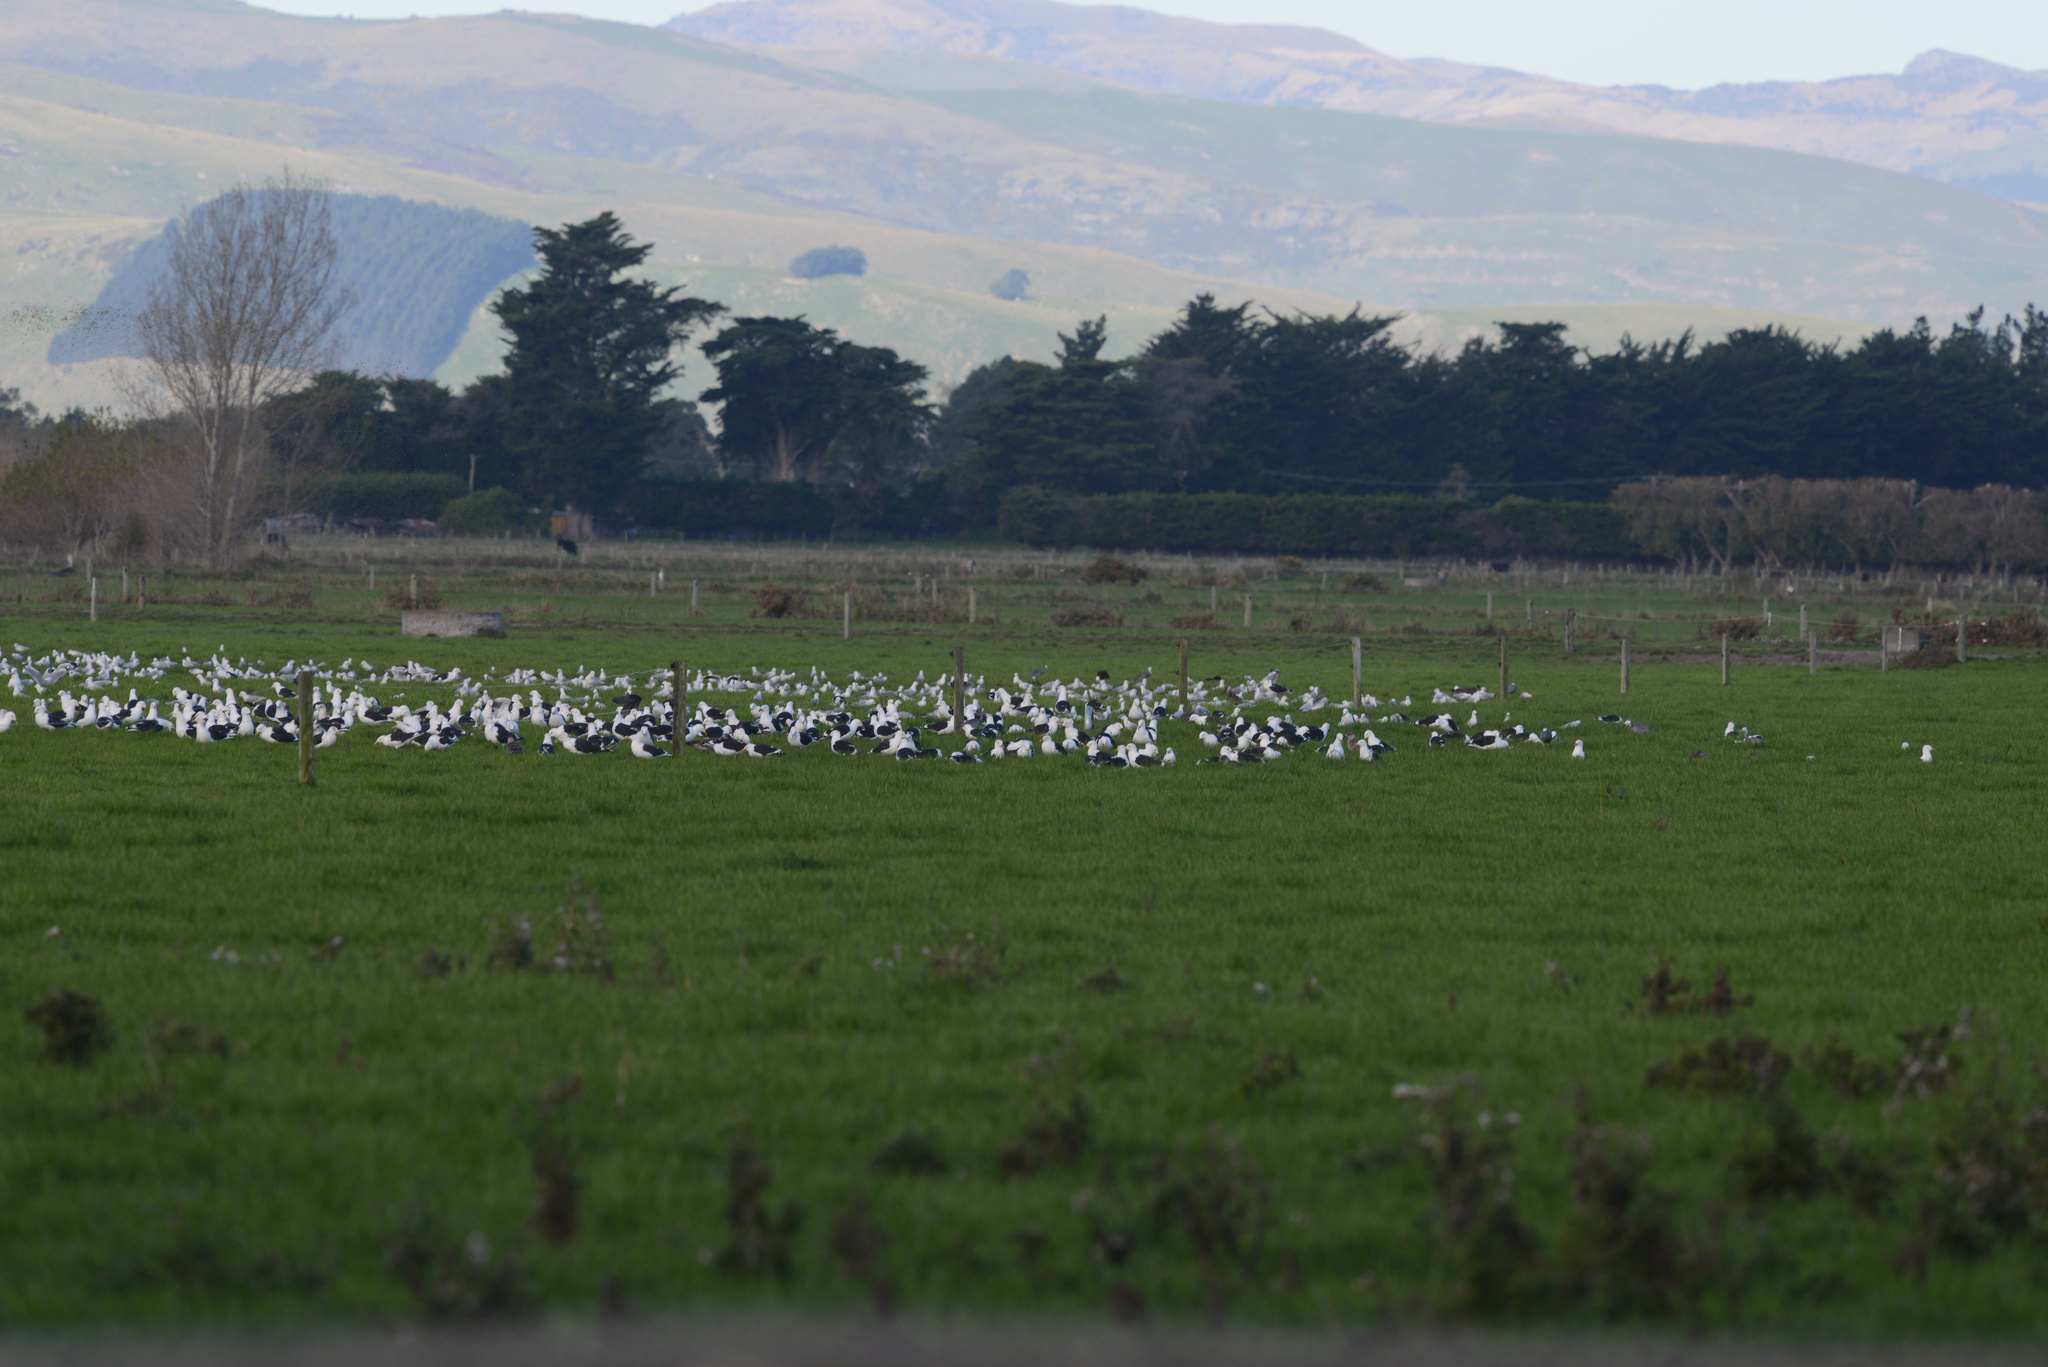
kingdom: Animalia
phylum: Chordata
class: Aves
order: Charadriiformes
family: Laridae
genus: Larus
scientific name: Larus dominicanus
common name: Kelp gull
